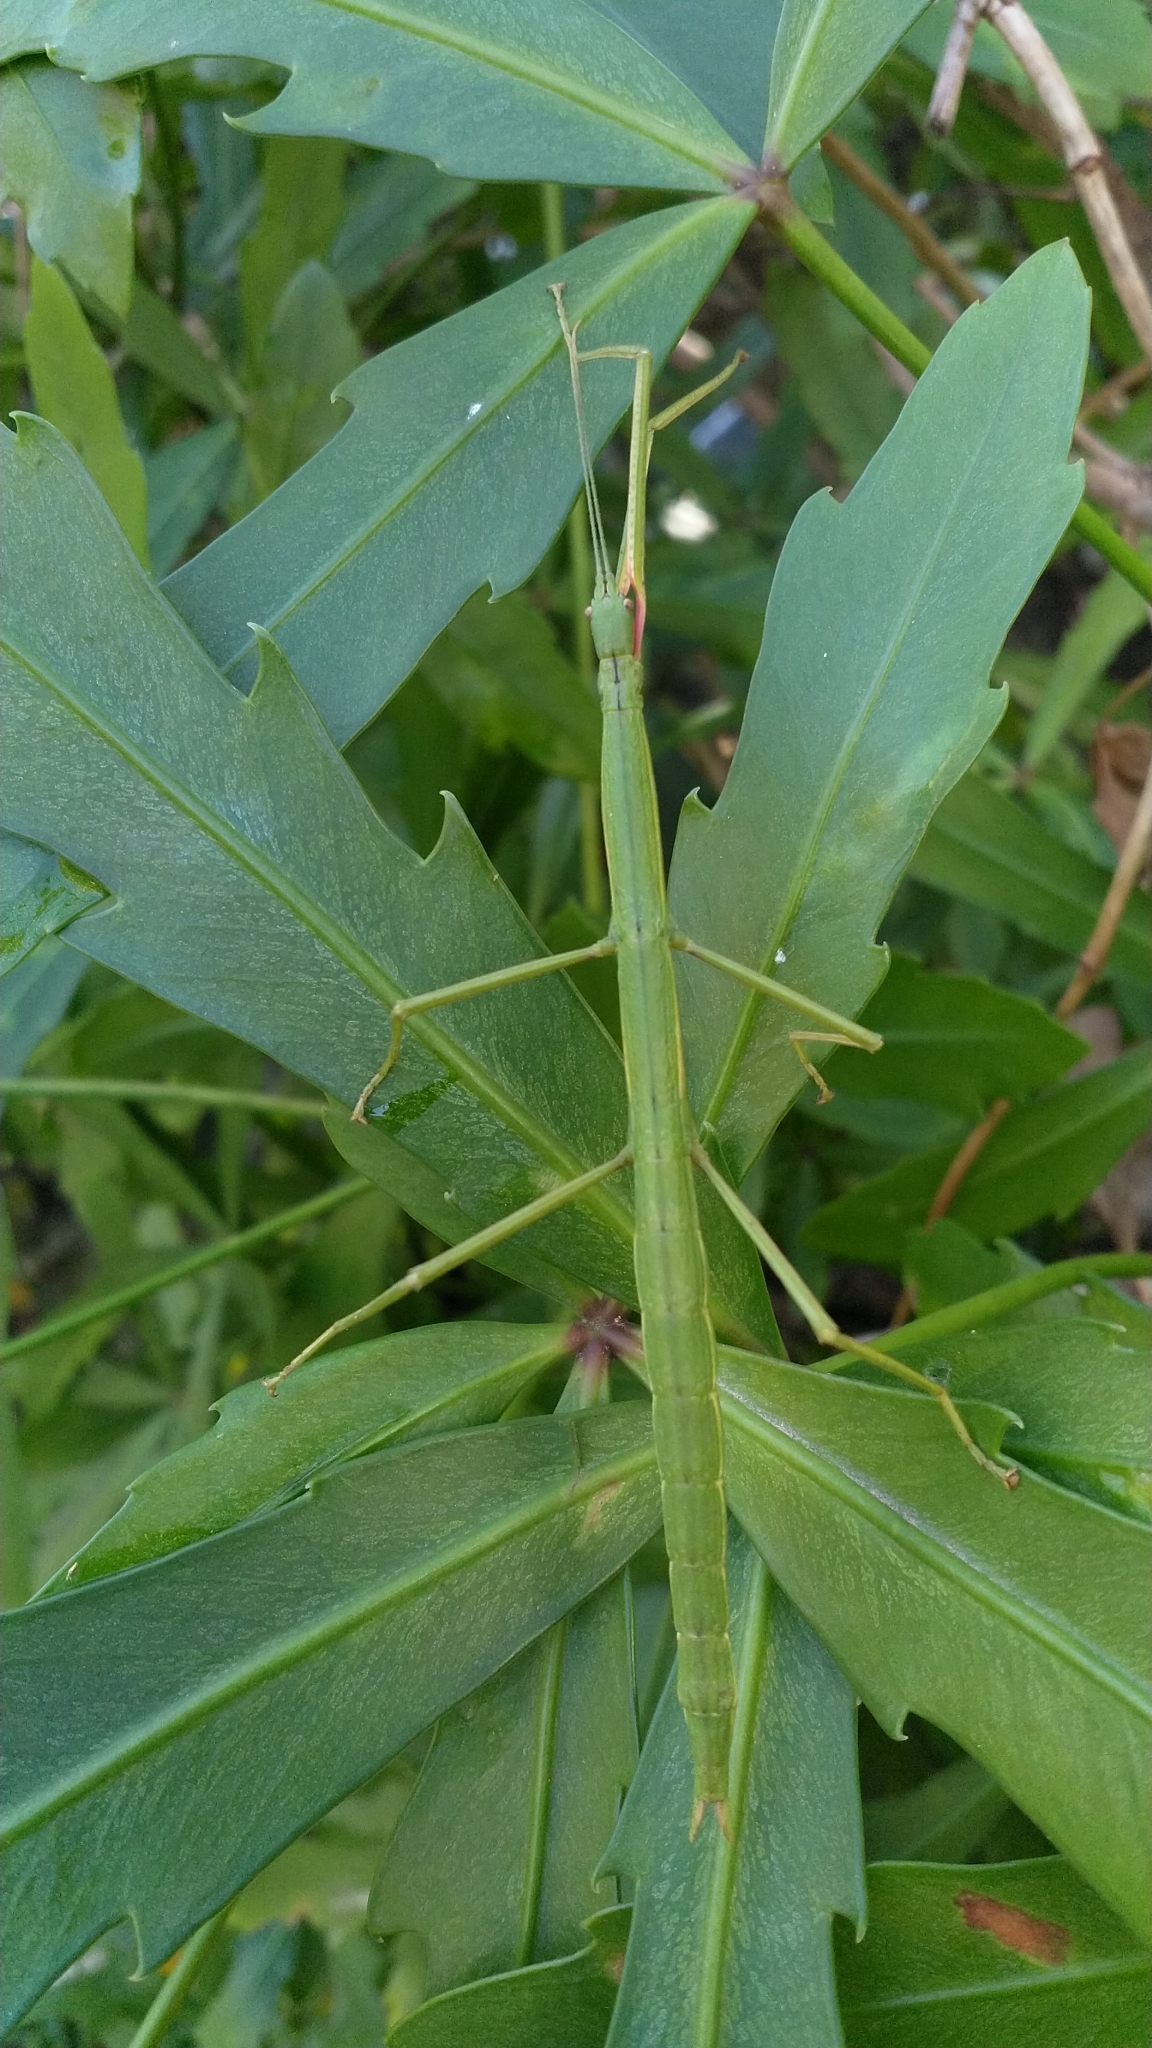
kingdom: Animalia
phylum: Arthropoda
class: Insecta
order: Phasmida
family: Phasmatidae
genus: Clitarchus
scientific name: Clitarchus hookeri
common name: Smooth stick insect
